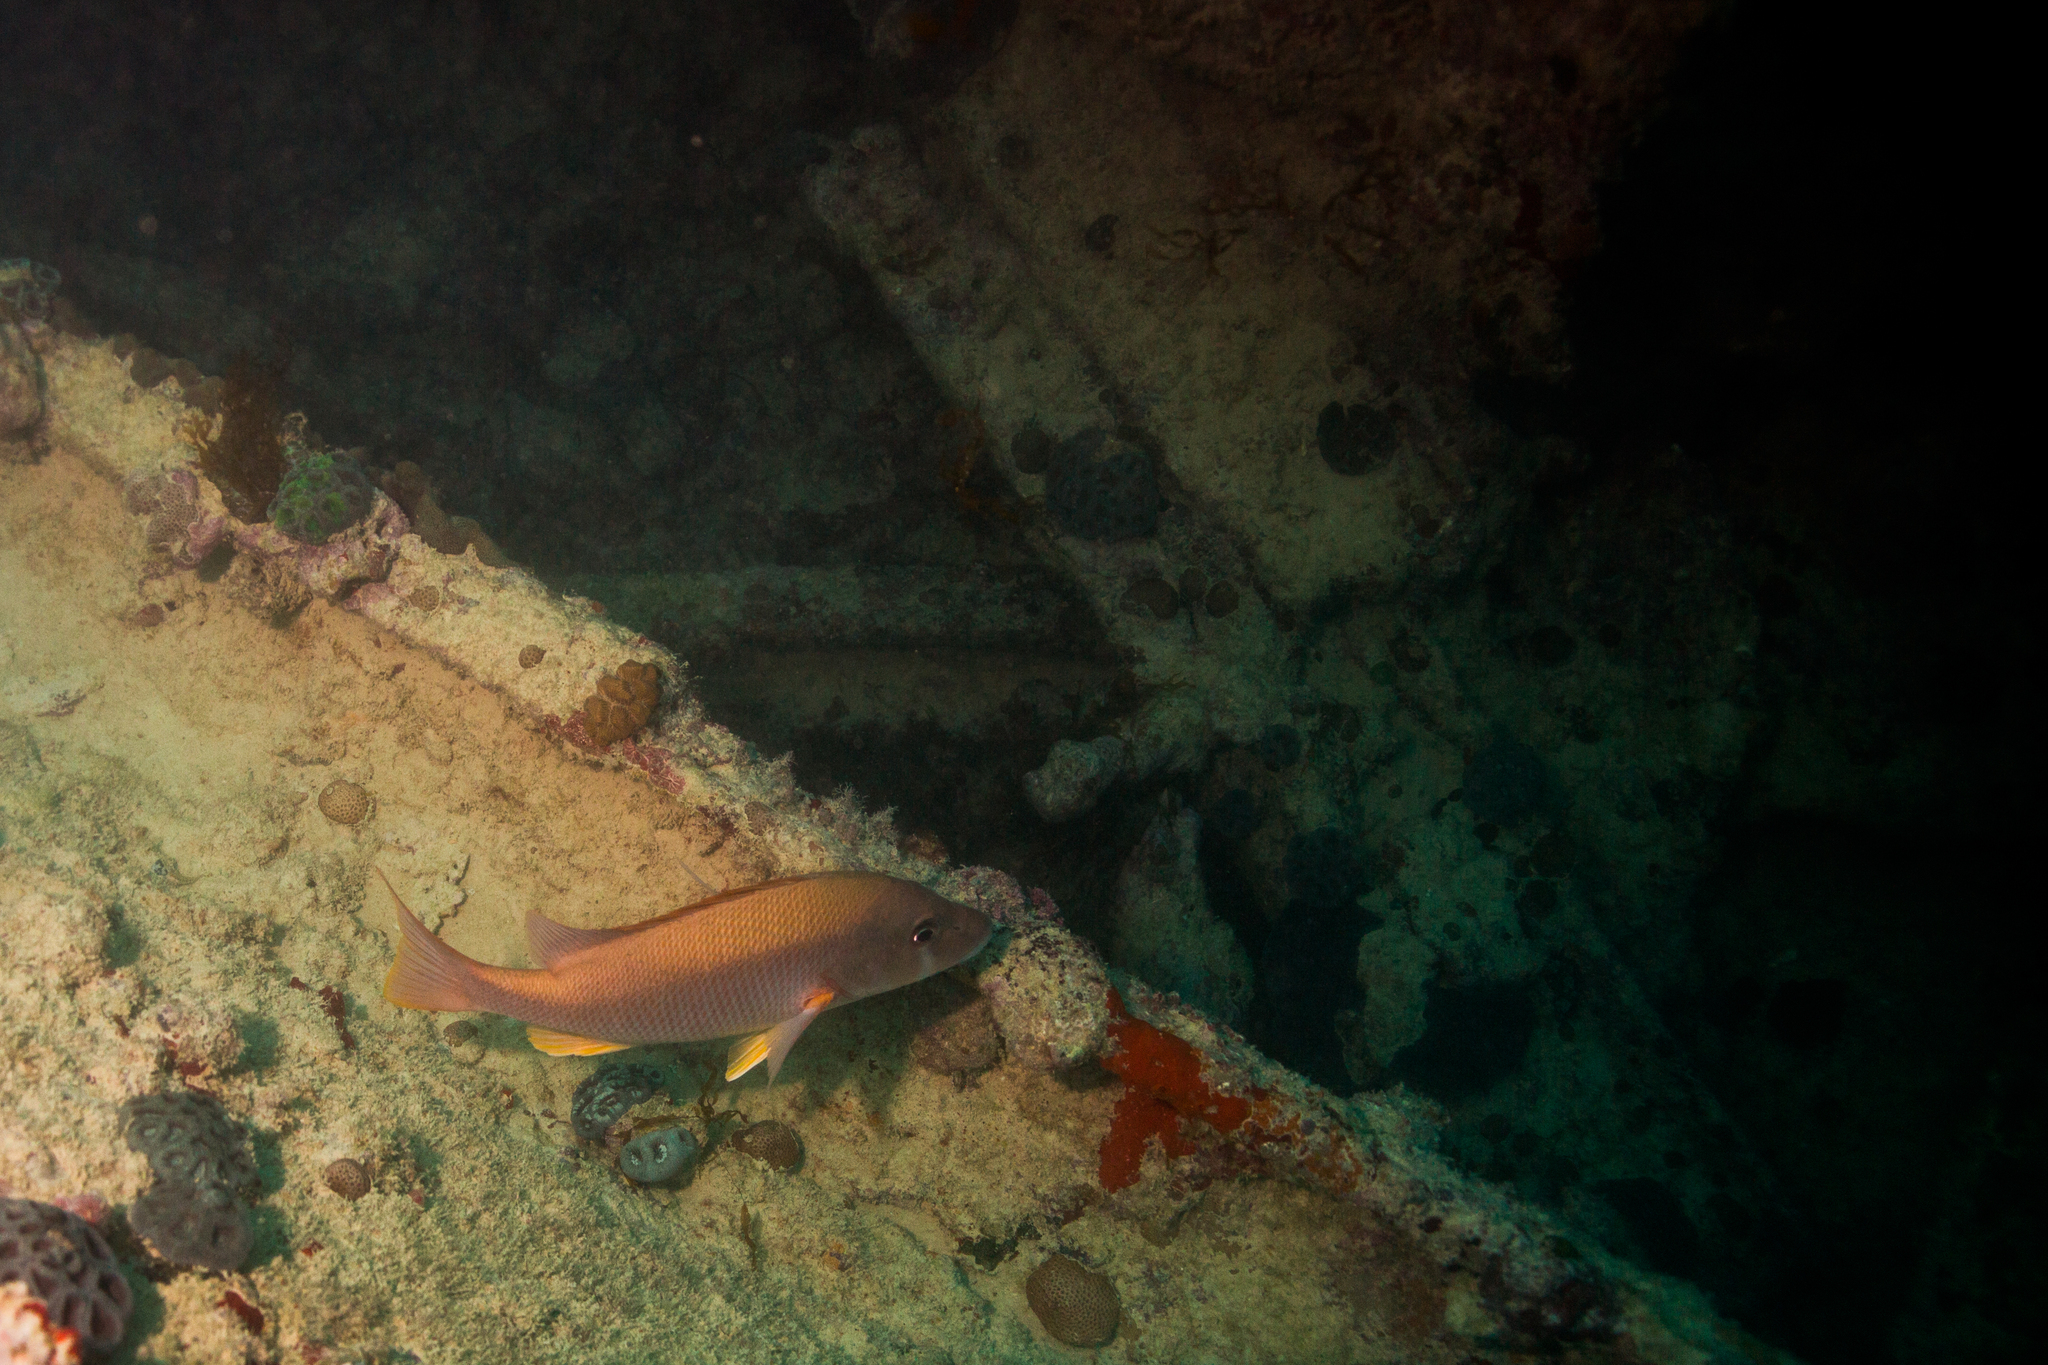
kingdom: Animalia
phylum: Chordata
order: Perciformes
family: Lutjanidae
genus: Lutjanus
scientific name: Lutjanus jocu
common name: Dog snapper
